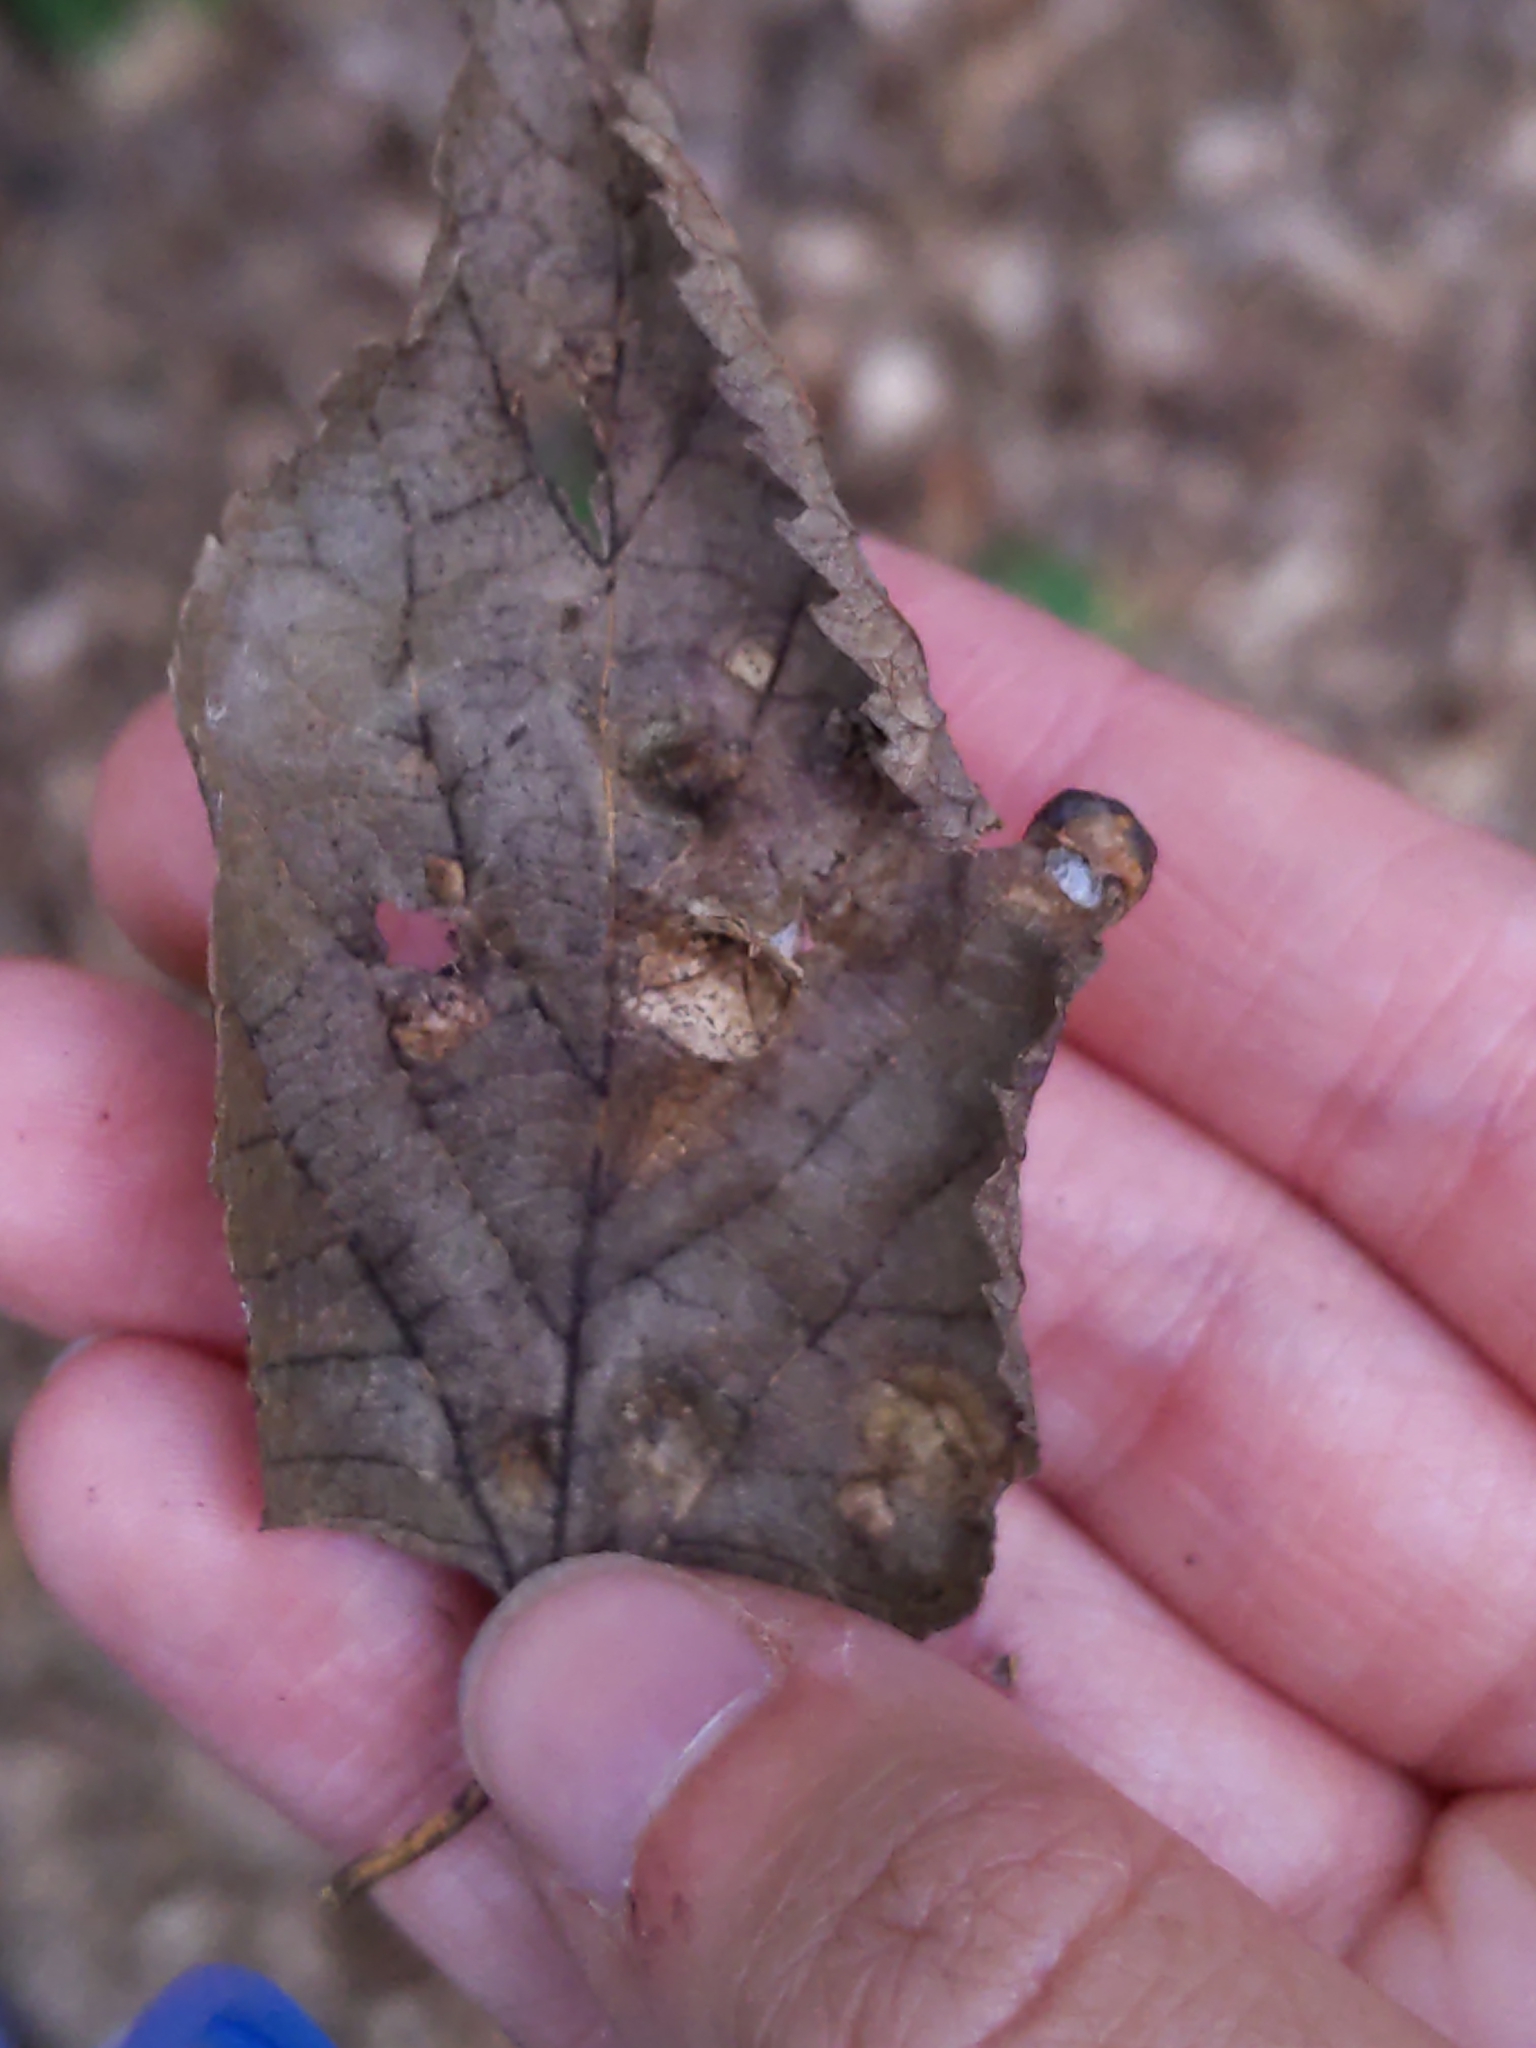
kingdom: Animalia
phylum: Arthropoda
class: Insecta
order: Hemiptera
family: Aphalaridae
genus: Pachypsylla
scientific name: Pachypsylla celtidismamma
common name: Hackberry nipplegall psyllid
